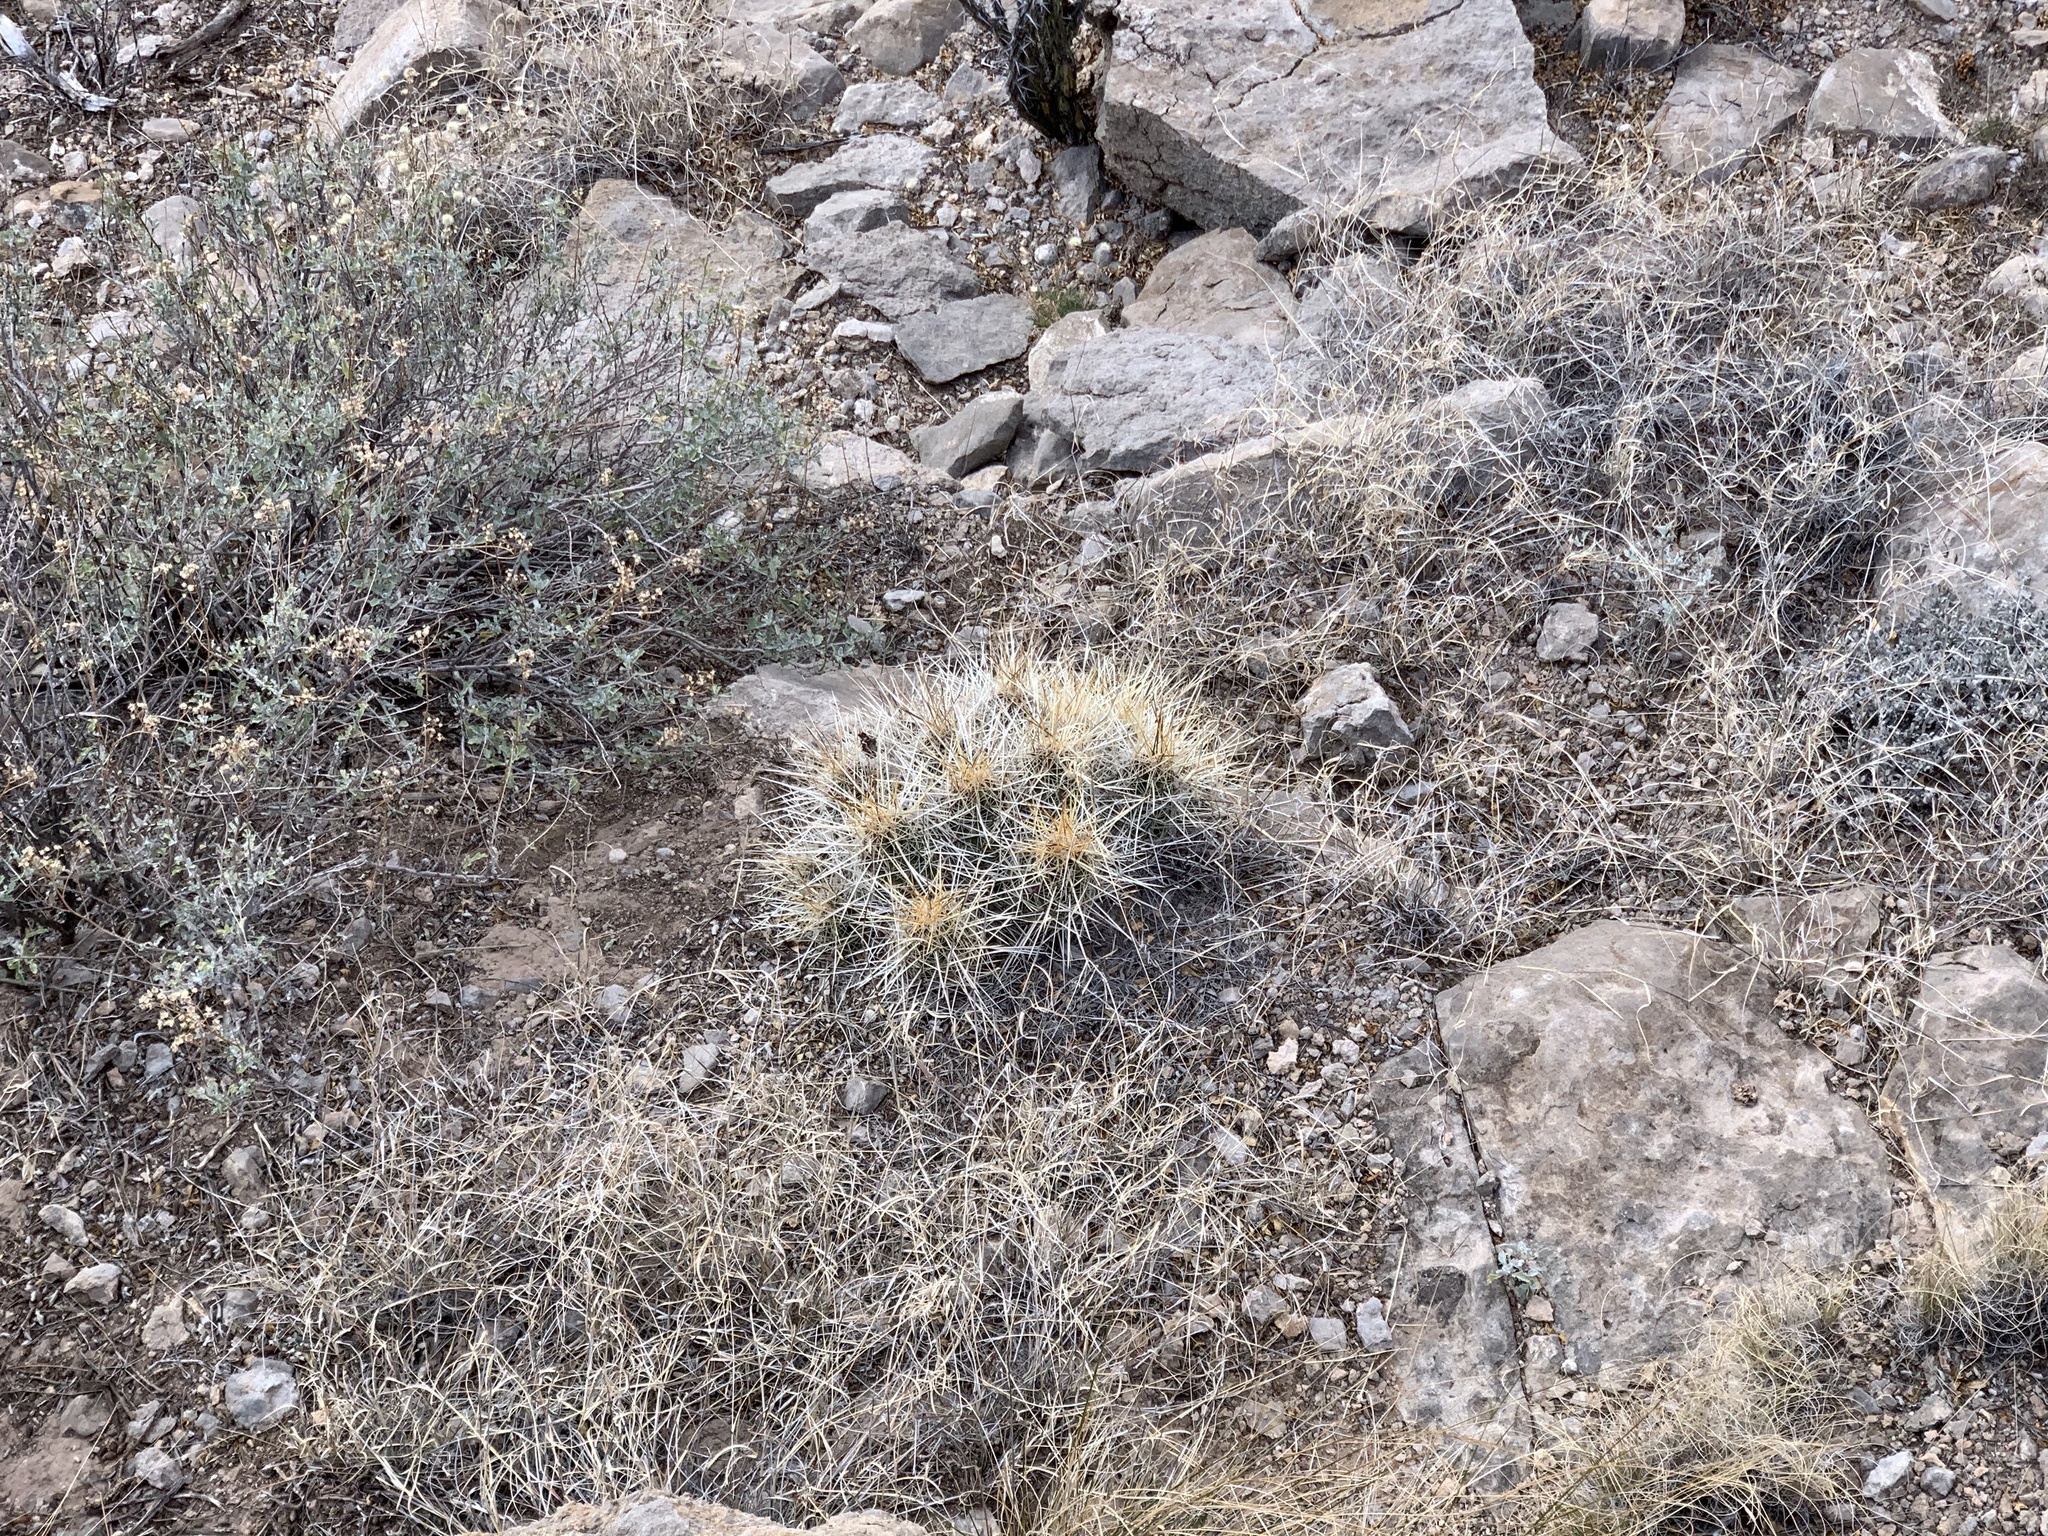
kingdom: Plantae
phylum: Tracheophyta
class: Magnoliopsida
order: Caryophyllales
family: Cactaceae
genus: Echinocereus
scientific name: Echinocereus stramineus
